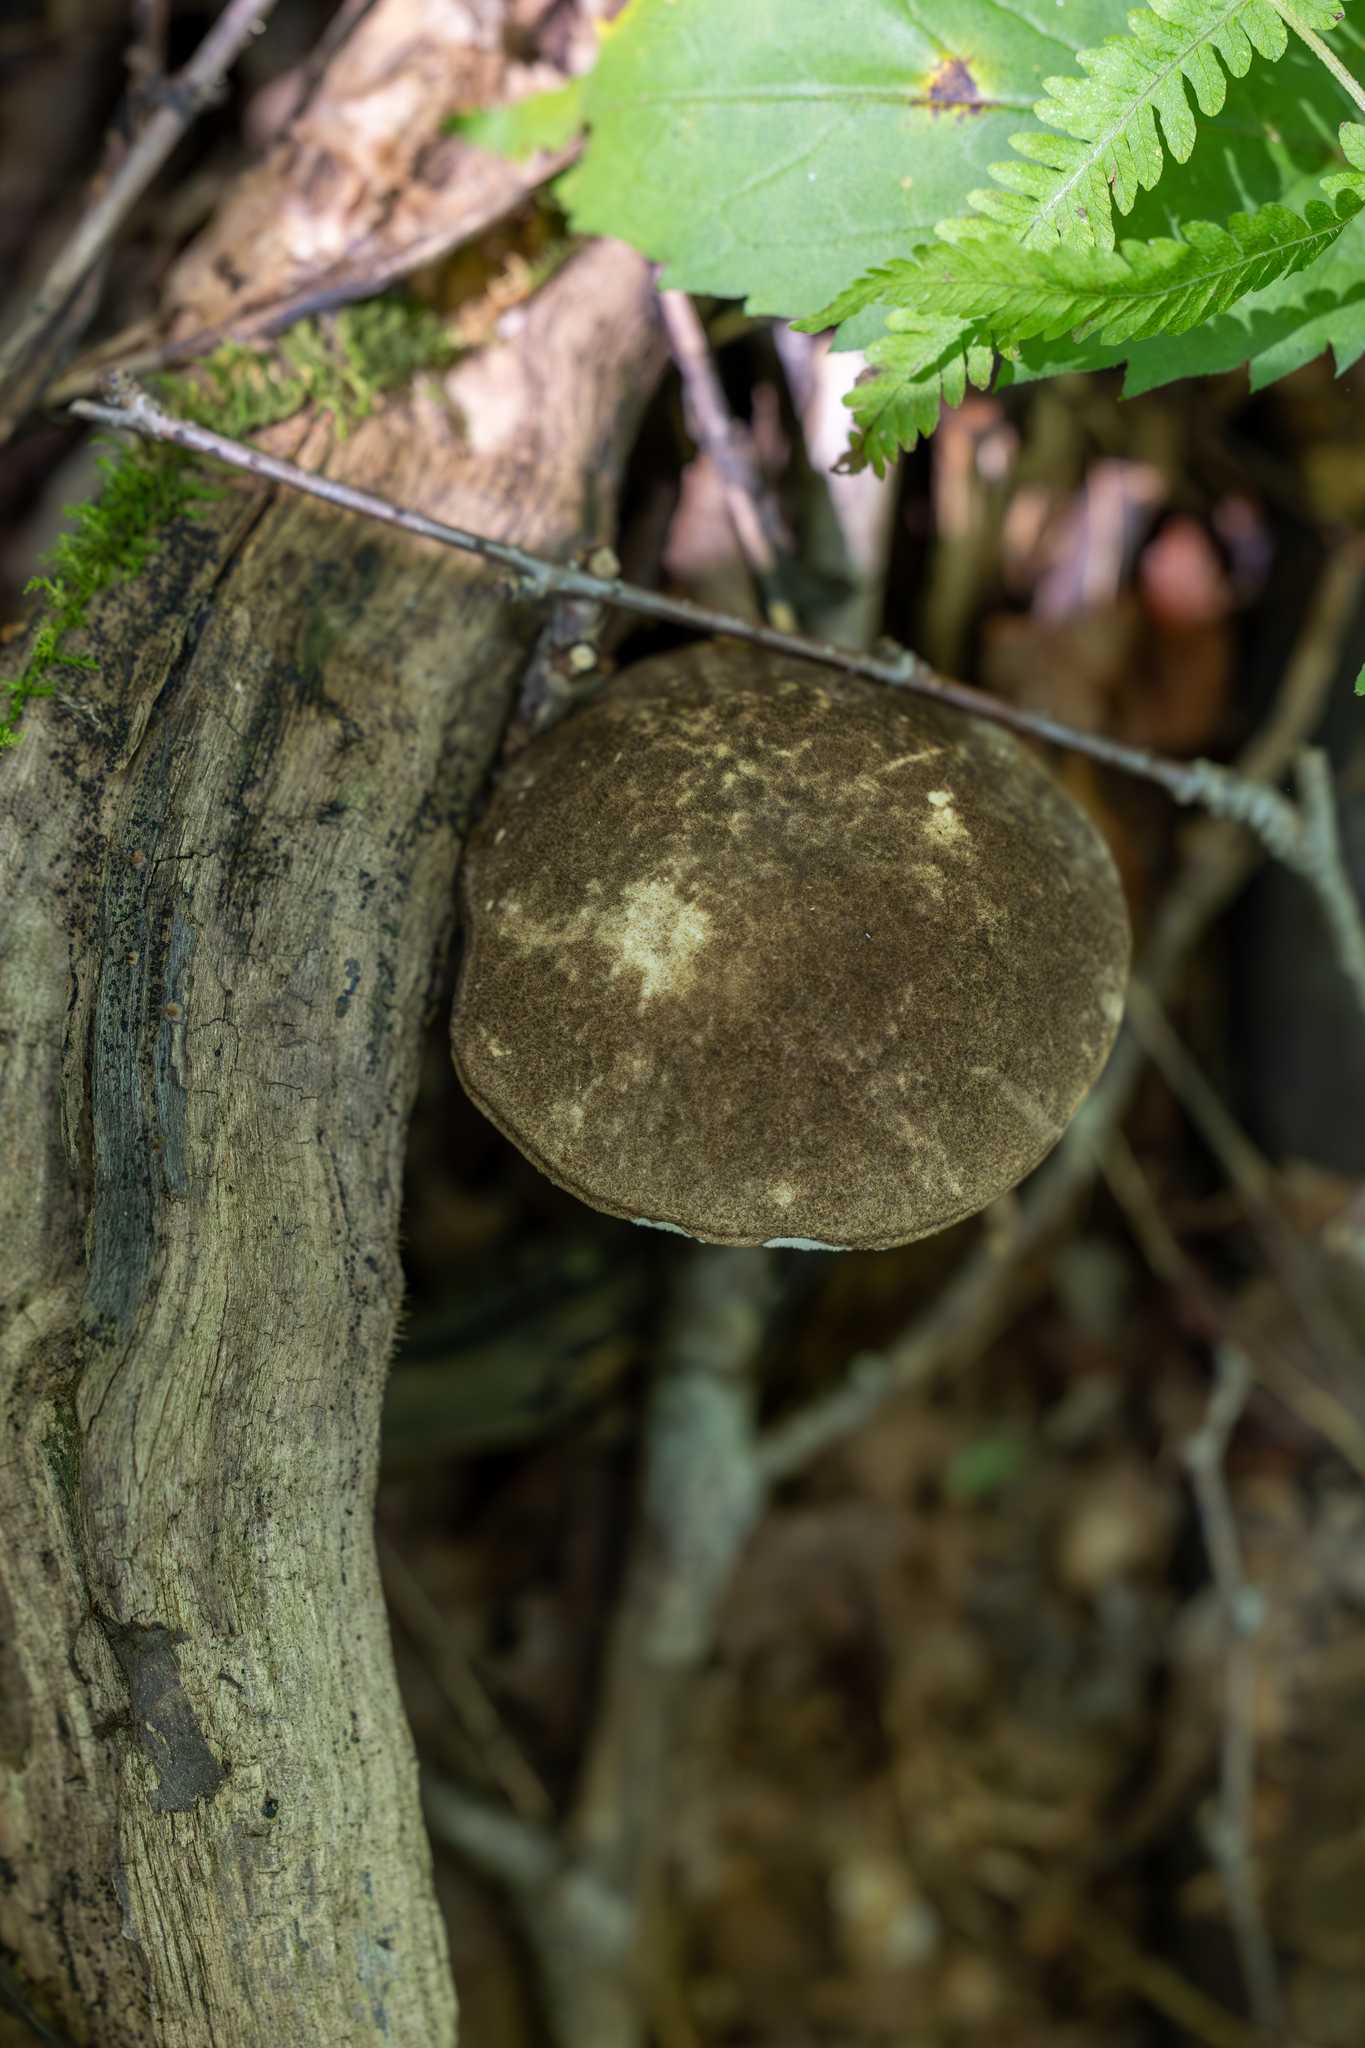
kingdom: Fungi
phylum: Basidiomycota
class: Agaricomycetes
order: Boletales
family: Boletaceae
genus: Leccinum
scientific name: Leccinum snellii
